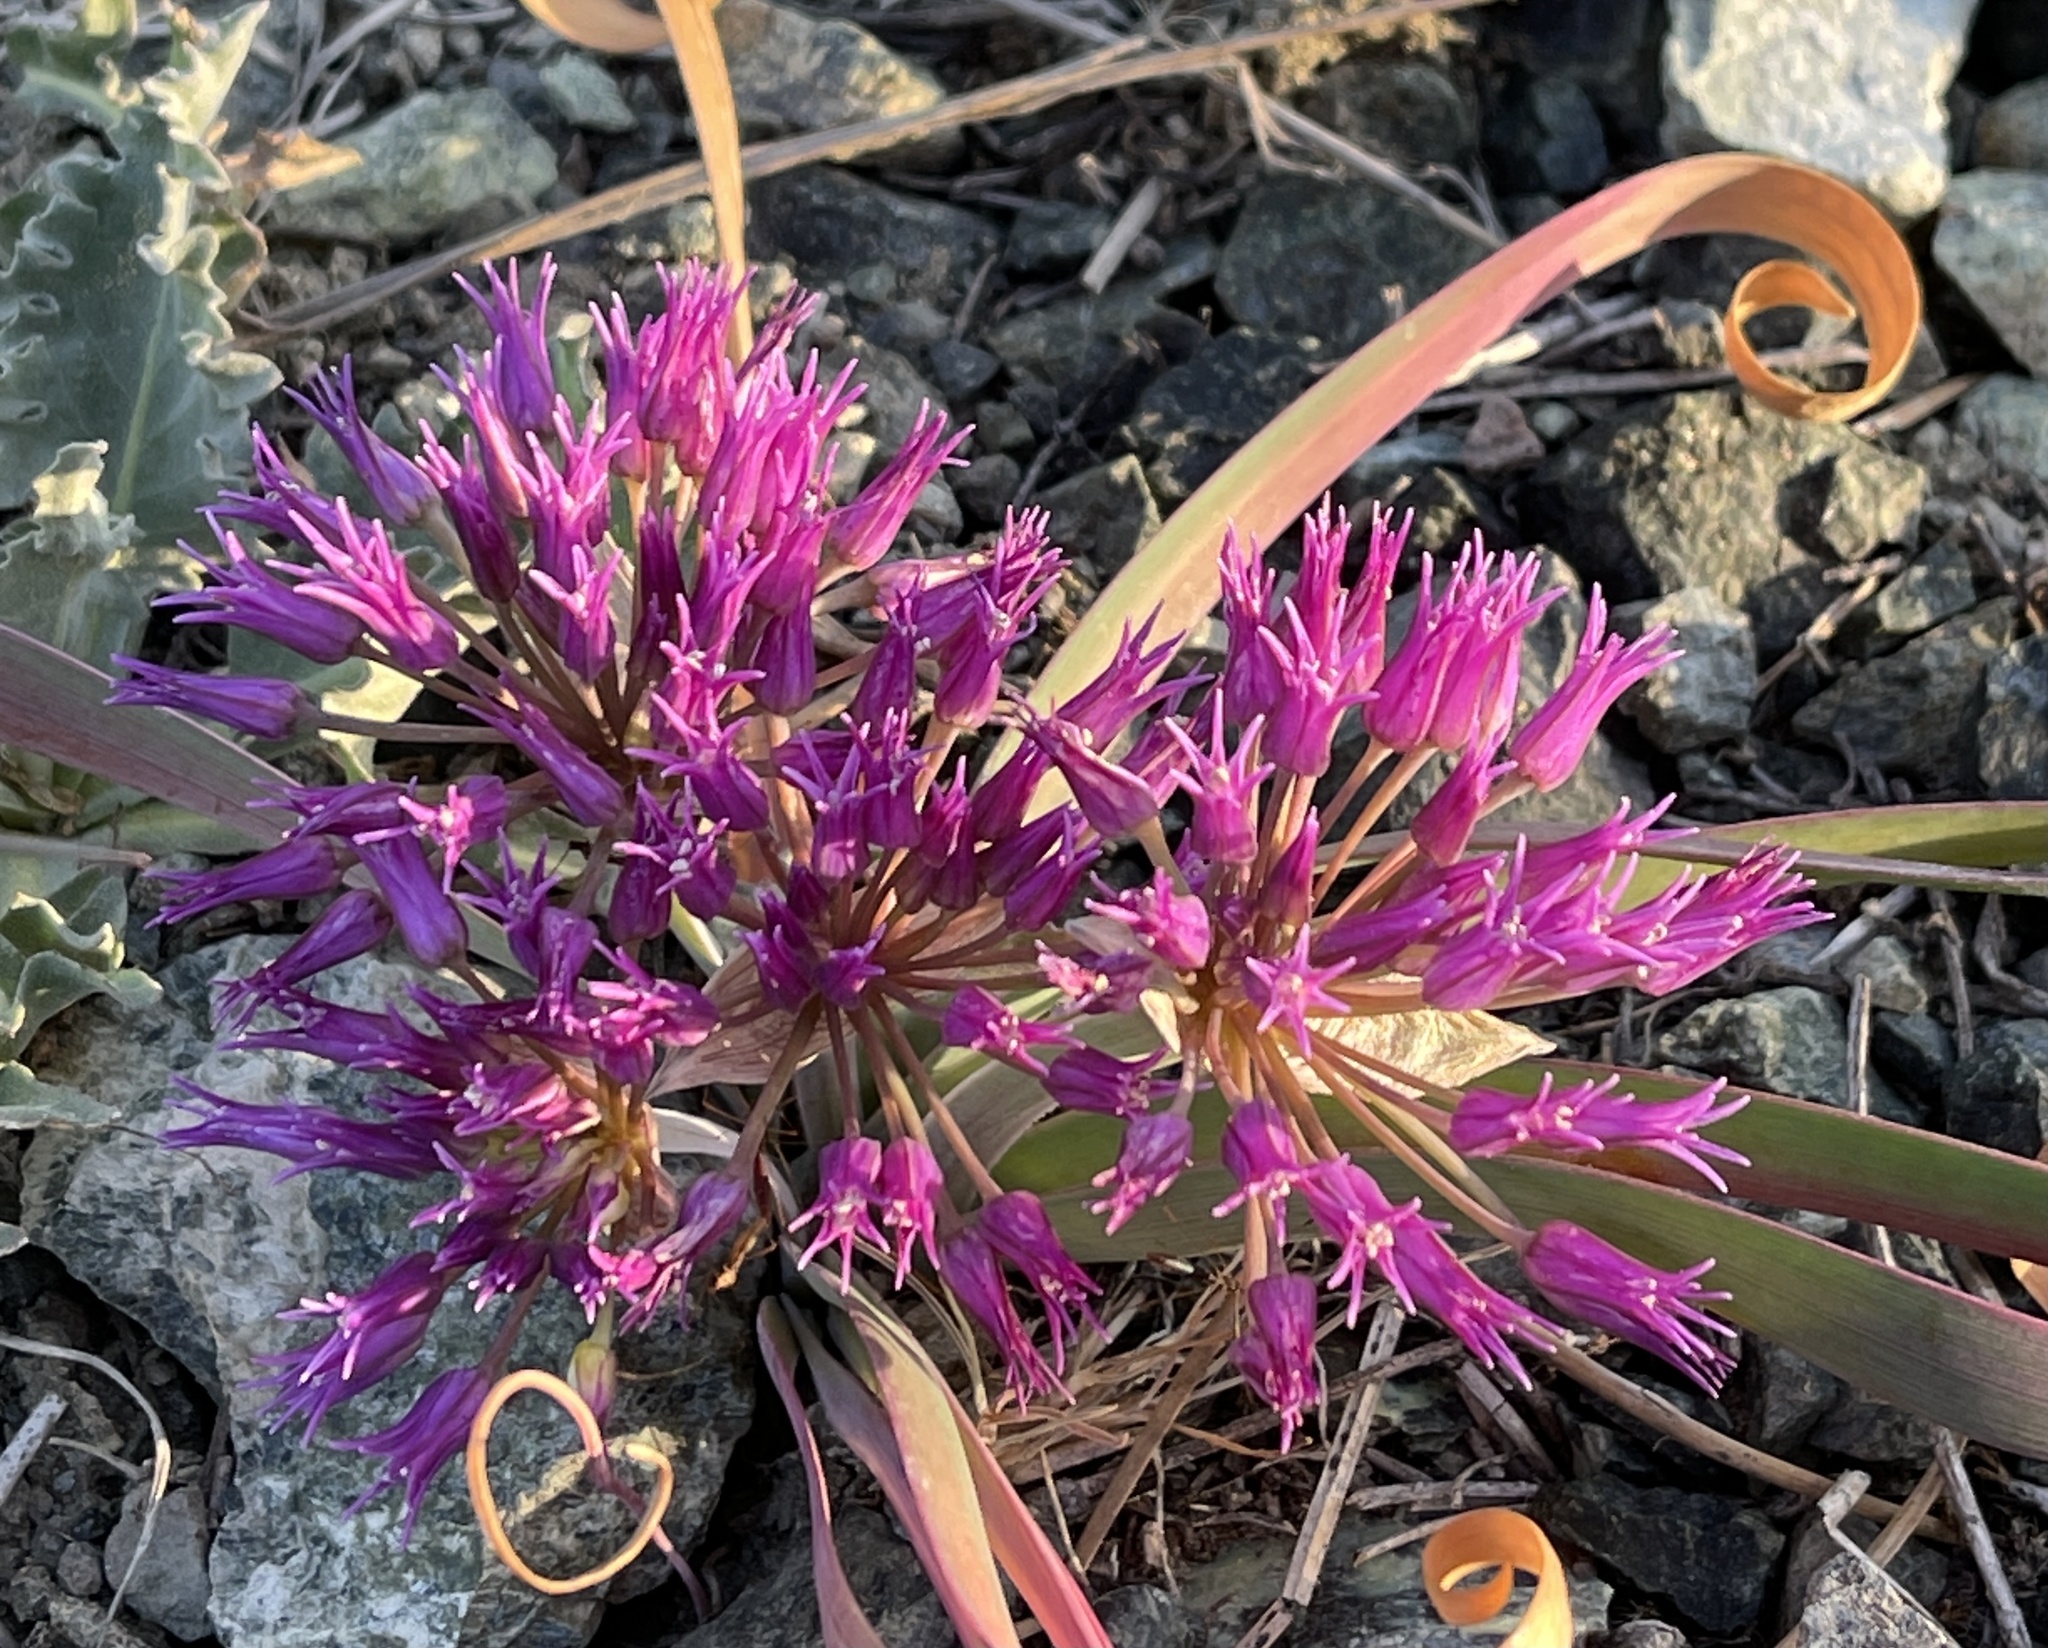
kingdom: Plantae
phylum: Tracheophyta
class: Liliopsida
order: Asparagales
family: Amaryllidaceae
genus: Allium
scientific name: Allium falcifolium
